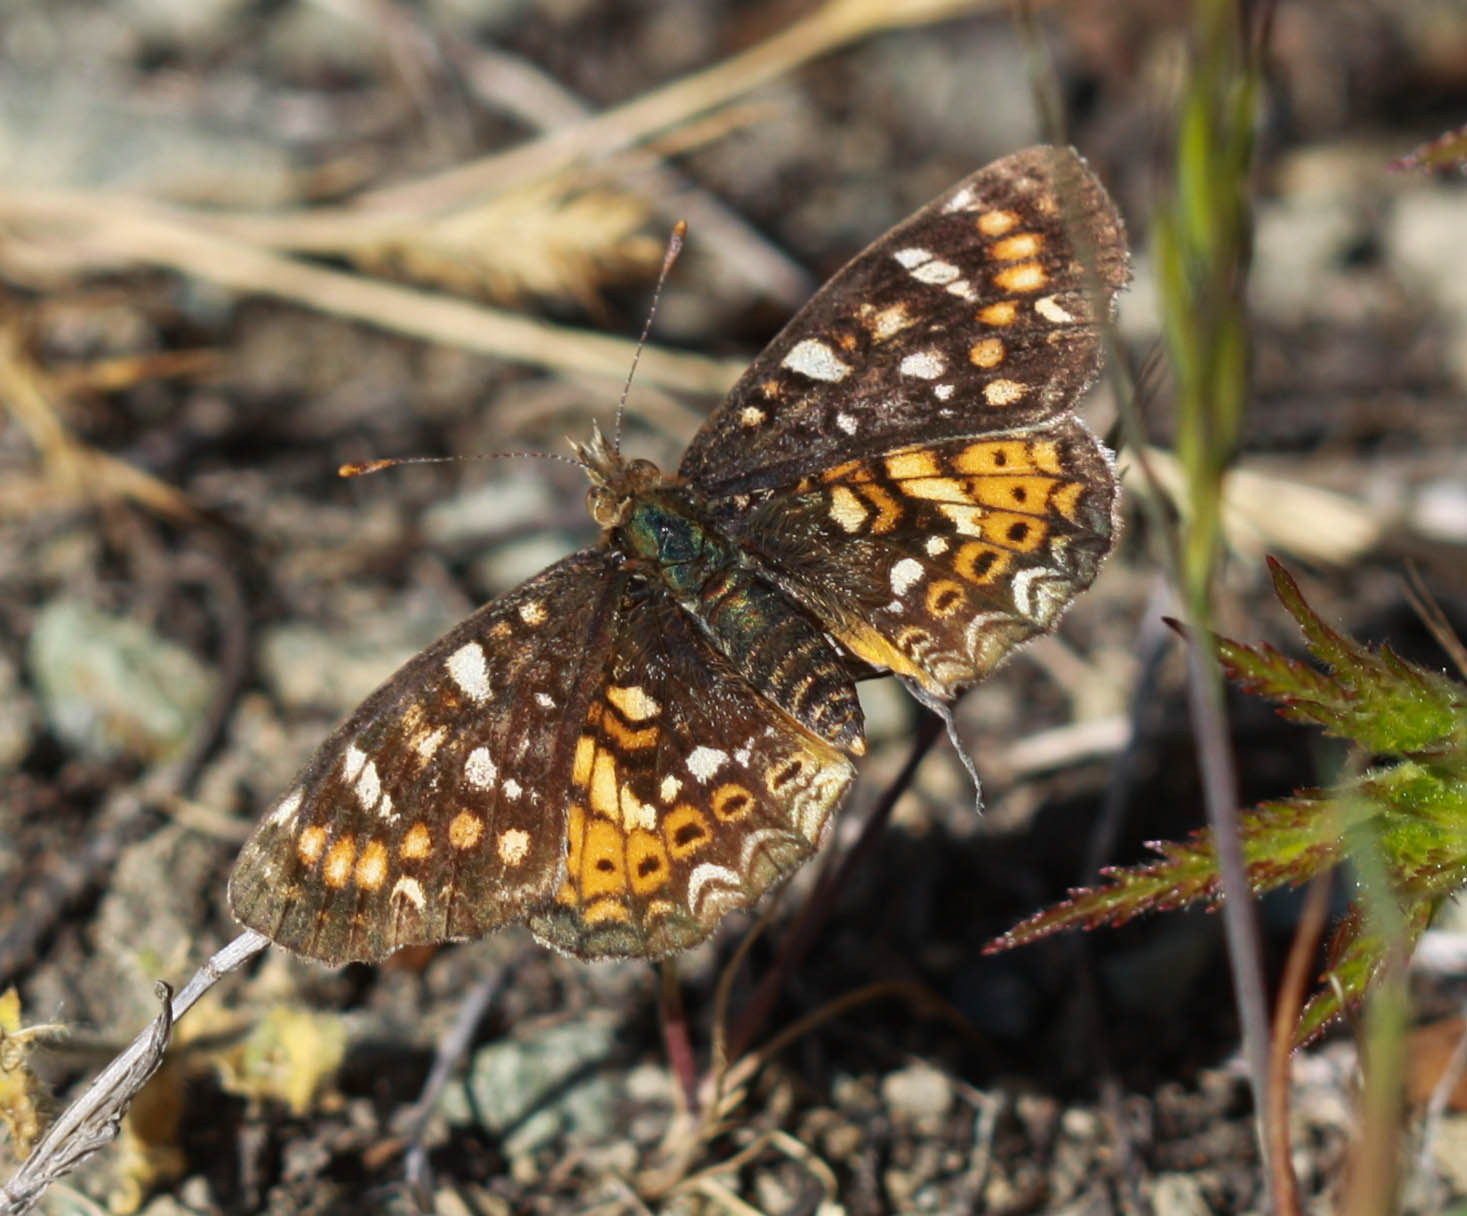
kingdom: Animalia
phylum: Arthropoda
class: Insecta
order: Lepidoptera
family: Nymphalidae
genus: Phyciodes
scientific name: Phyciodes tharos
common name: Pearl crescent
